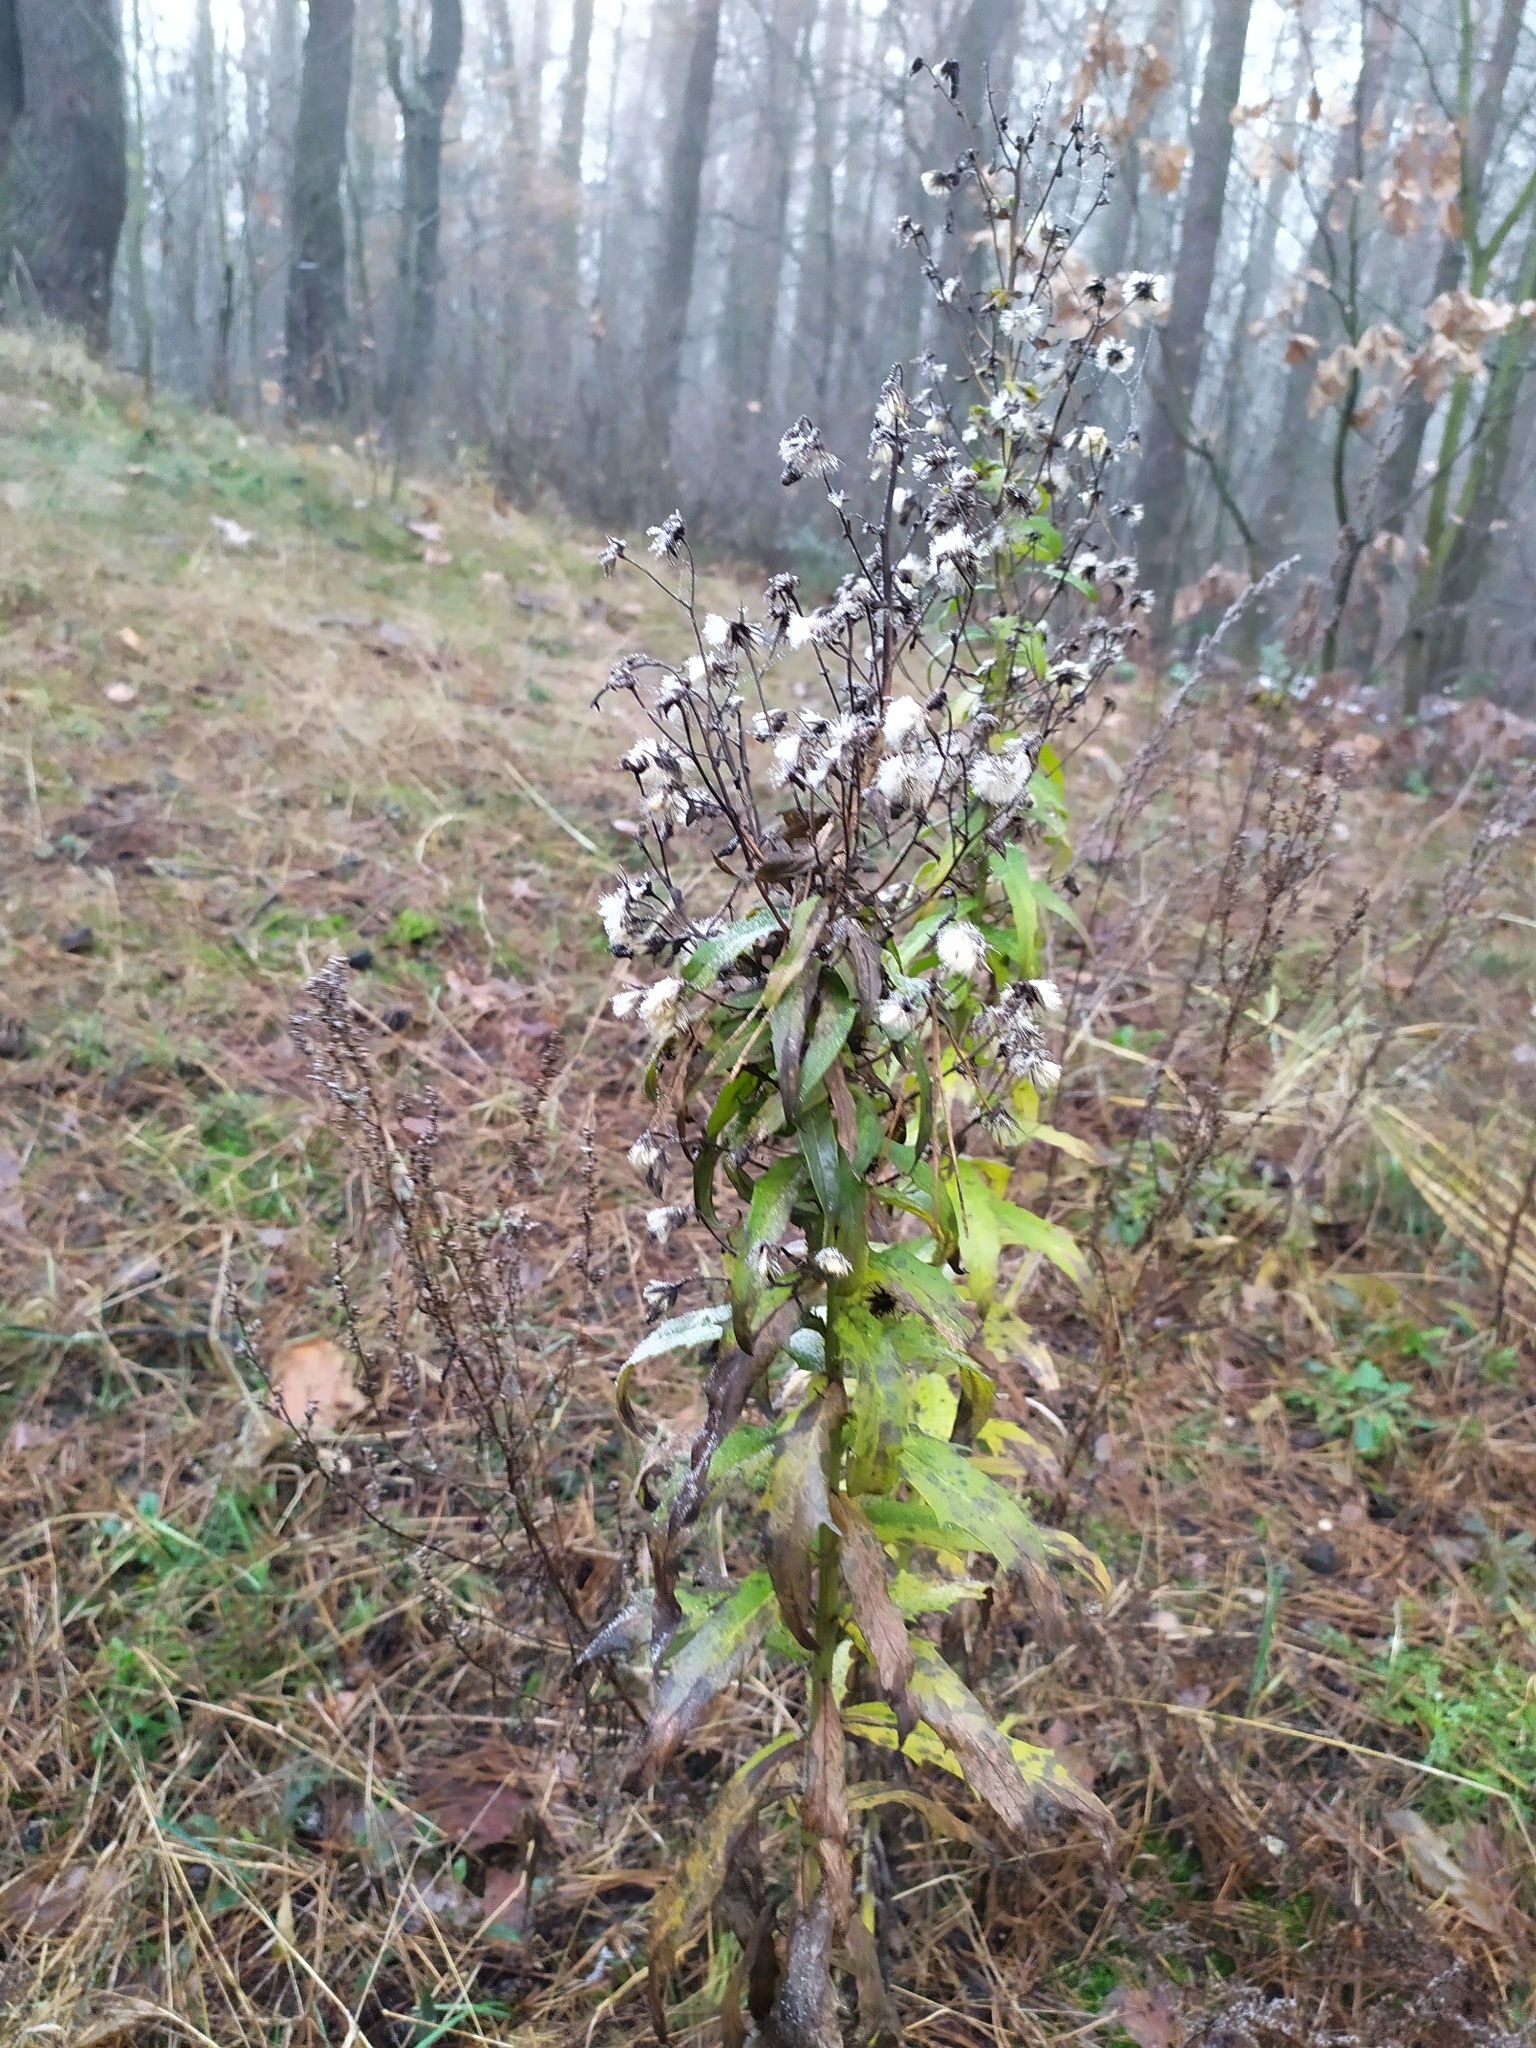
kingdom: Plantae
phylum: Tracheophyta
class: Magnoliopsida
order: Asterales
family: Asteraceae
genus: Hieracium
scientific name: Hieracium umbellatum
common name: Northern hawkweed
